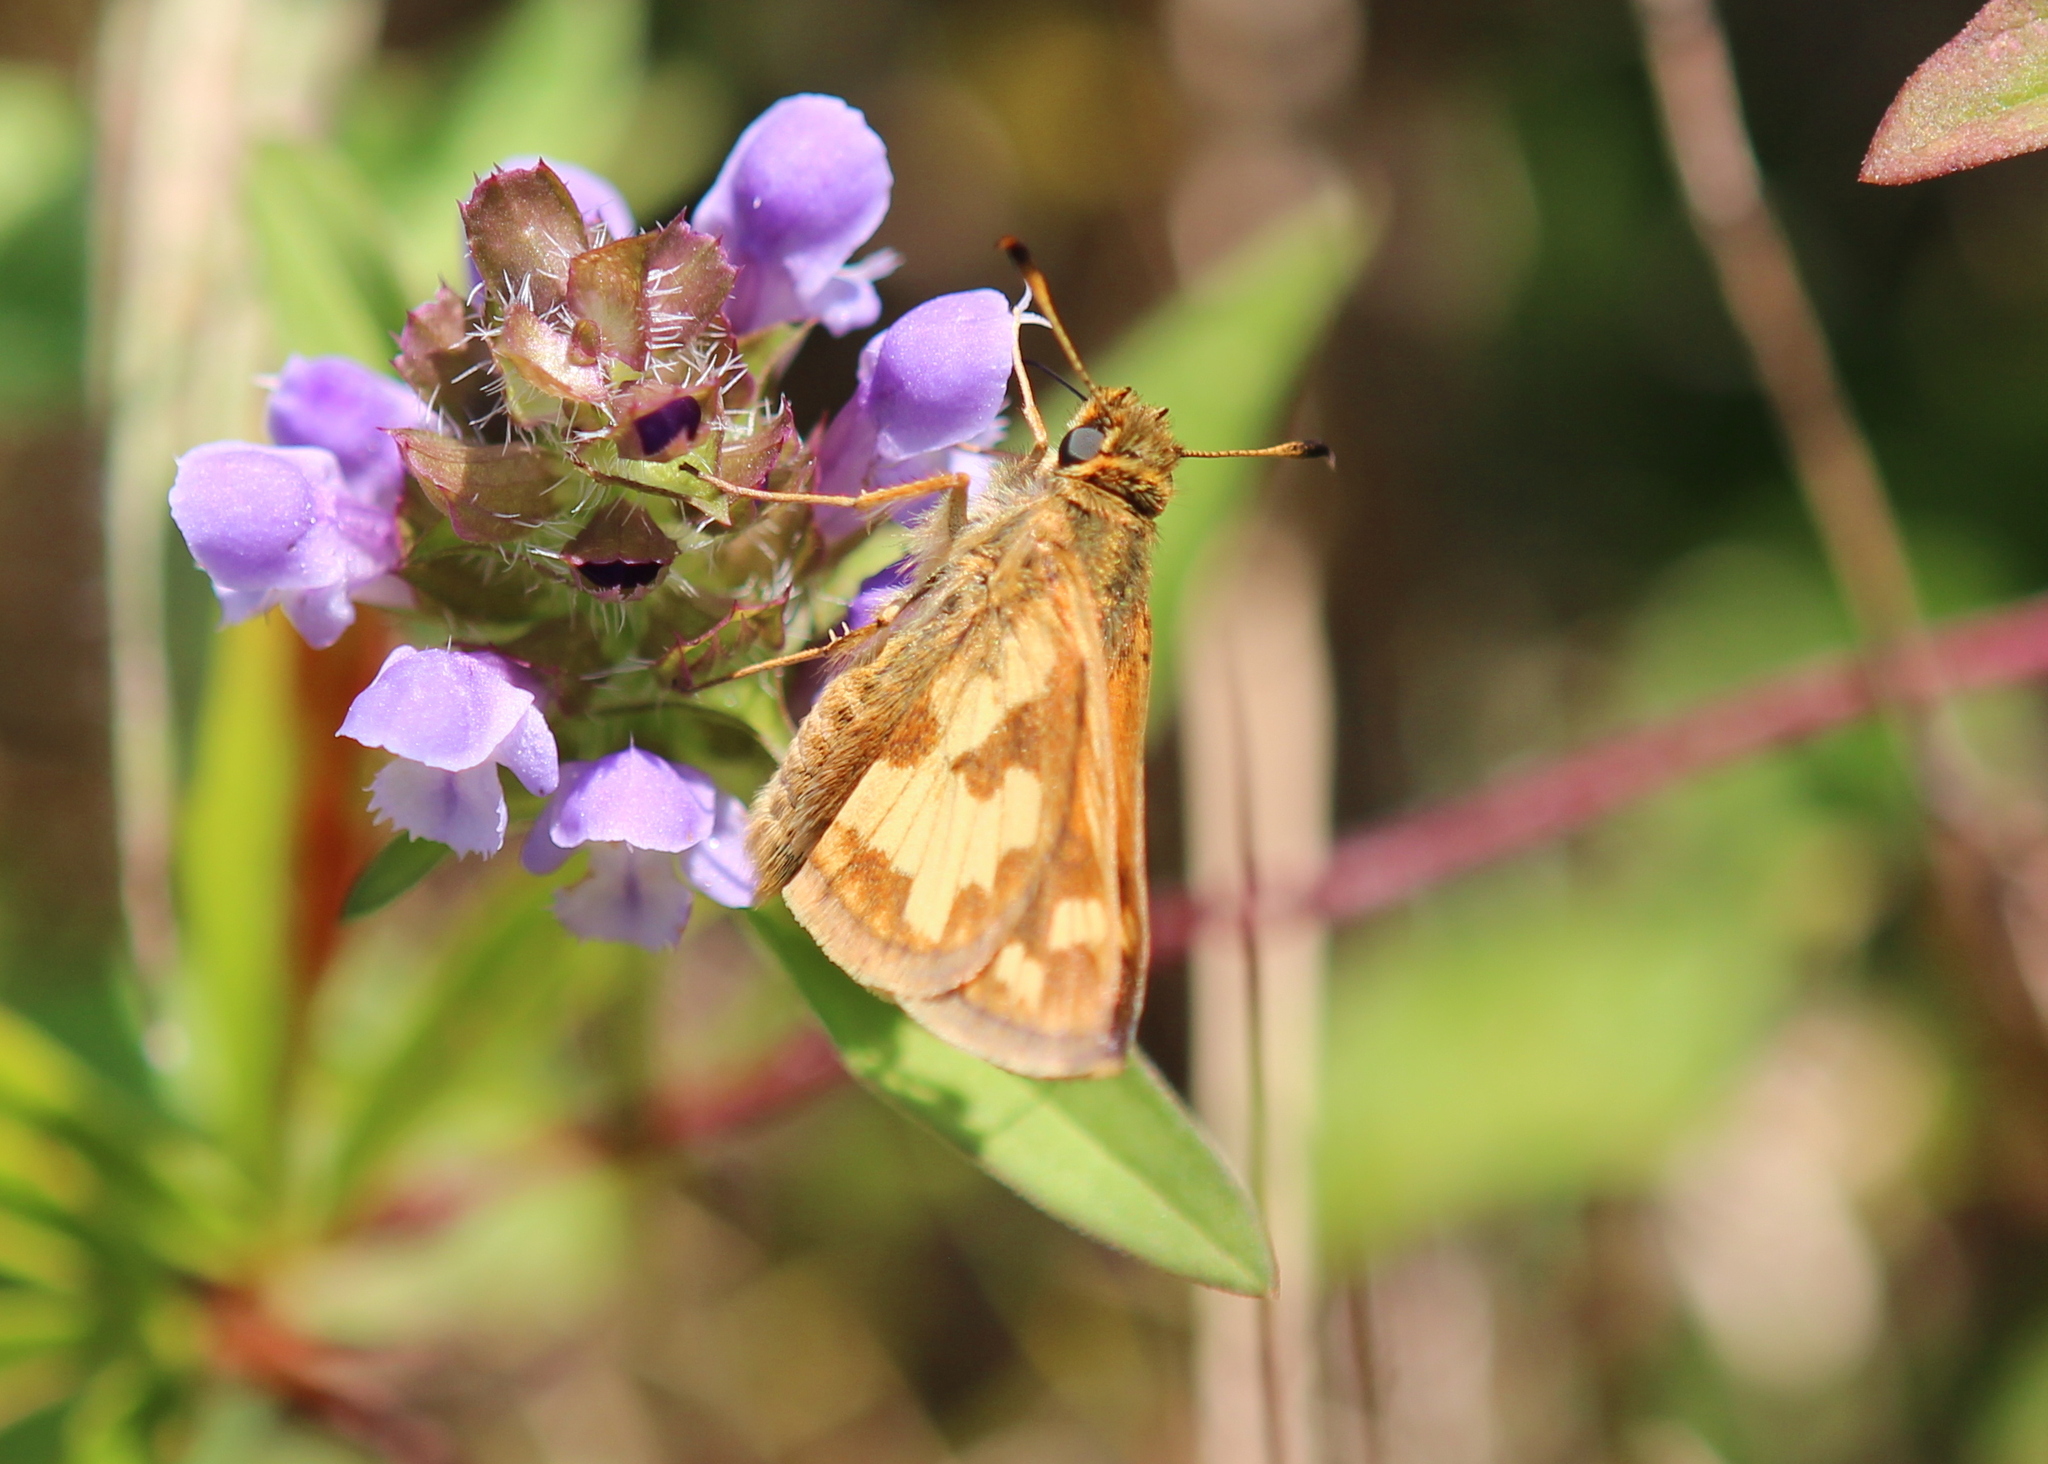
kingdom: Animalia
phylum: Arthropoda
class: Insecta
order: Lepidoptera
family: Hesperiidae
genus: Polites
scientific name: Polites coras
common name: Peck's skipper
